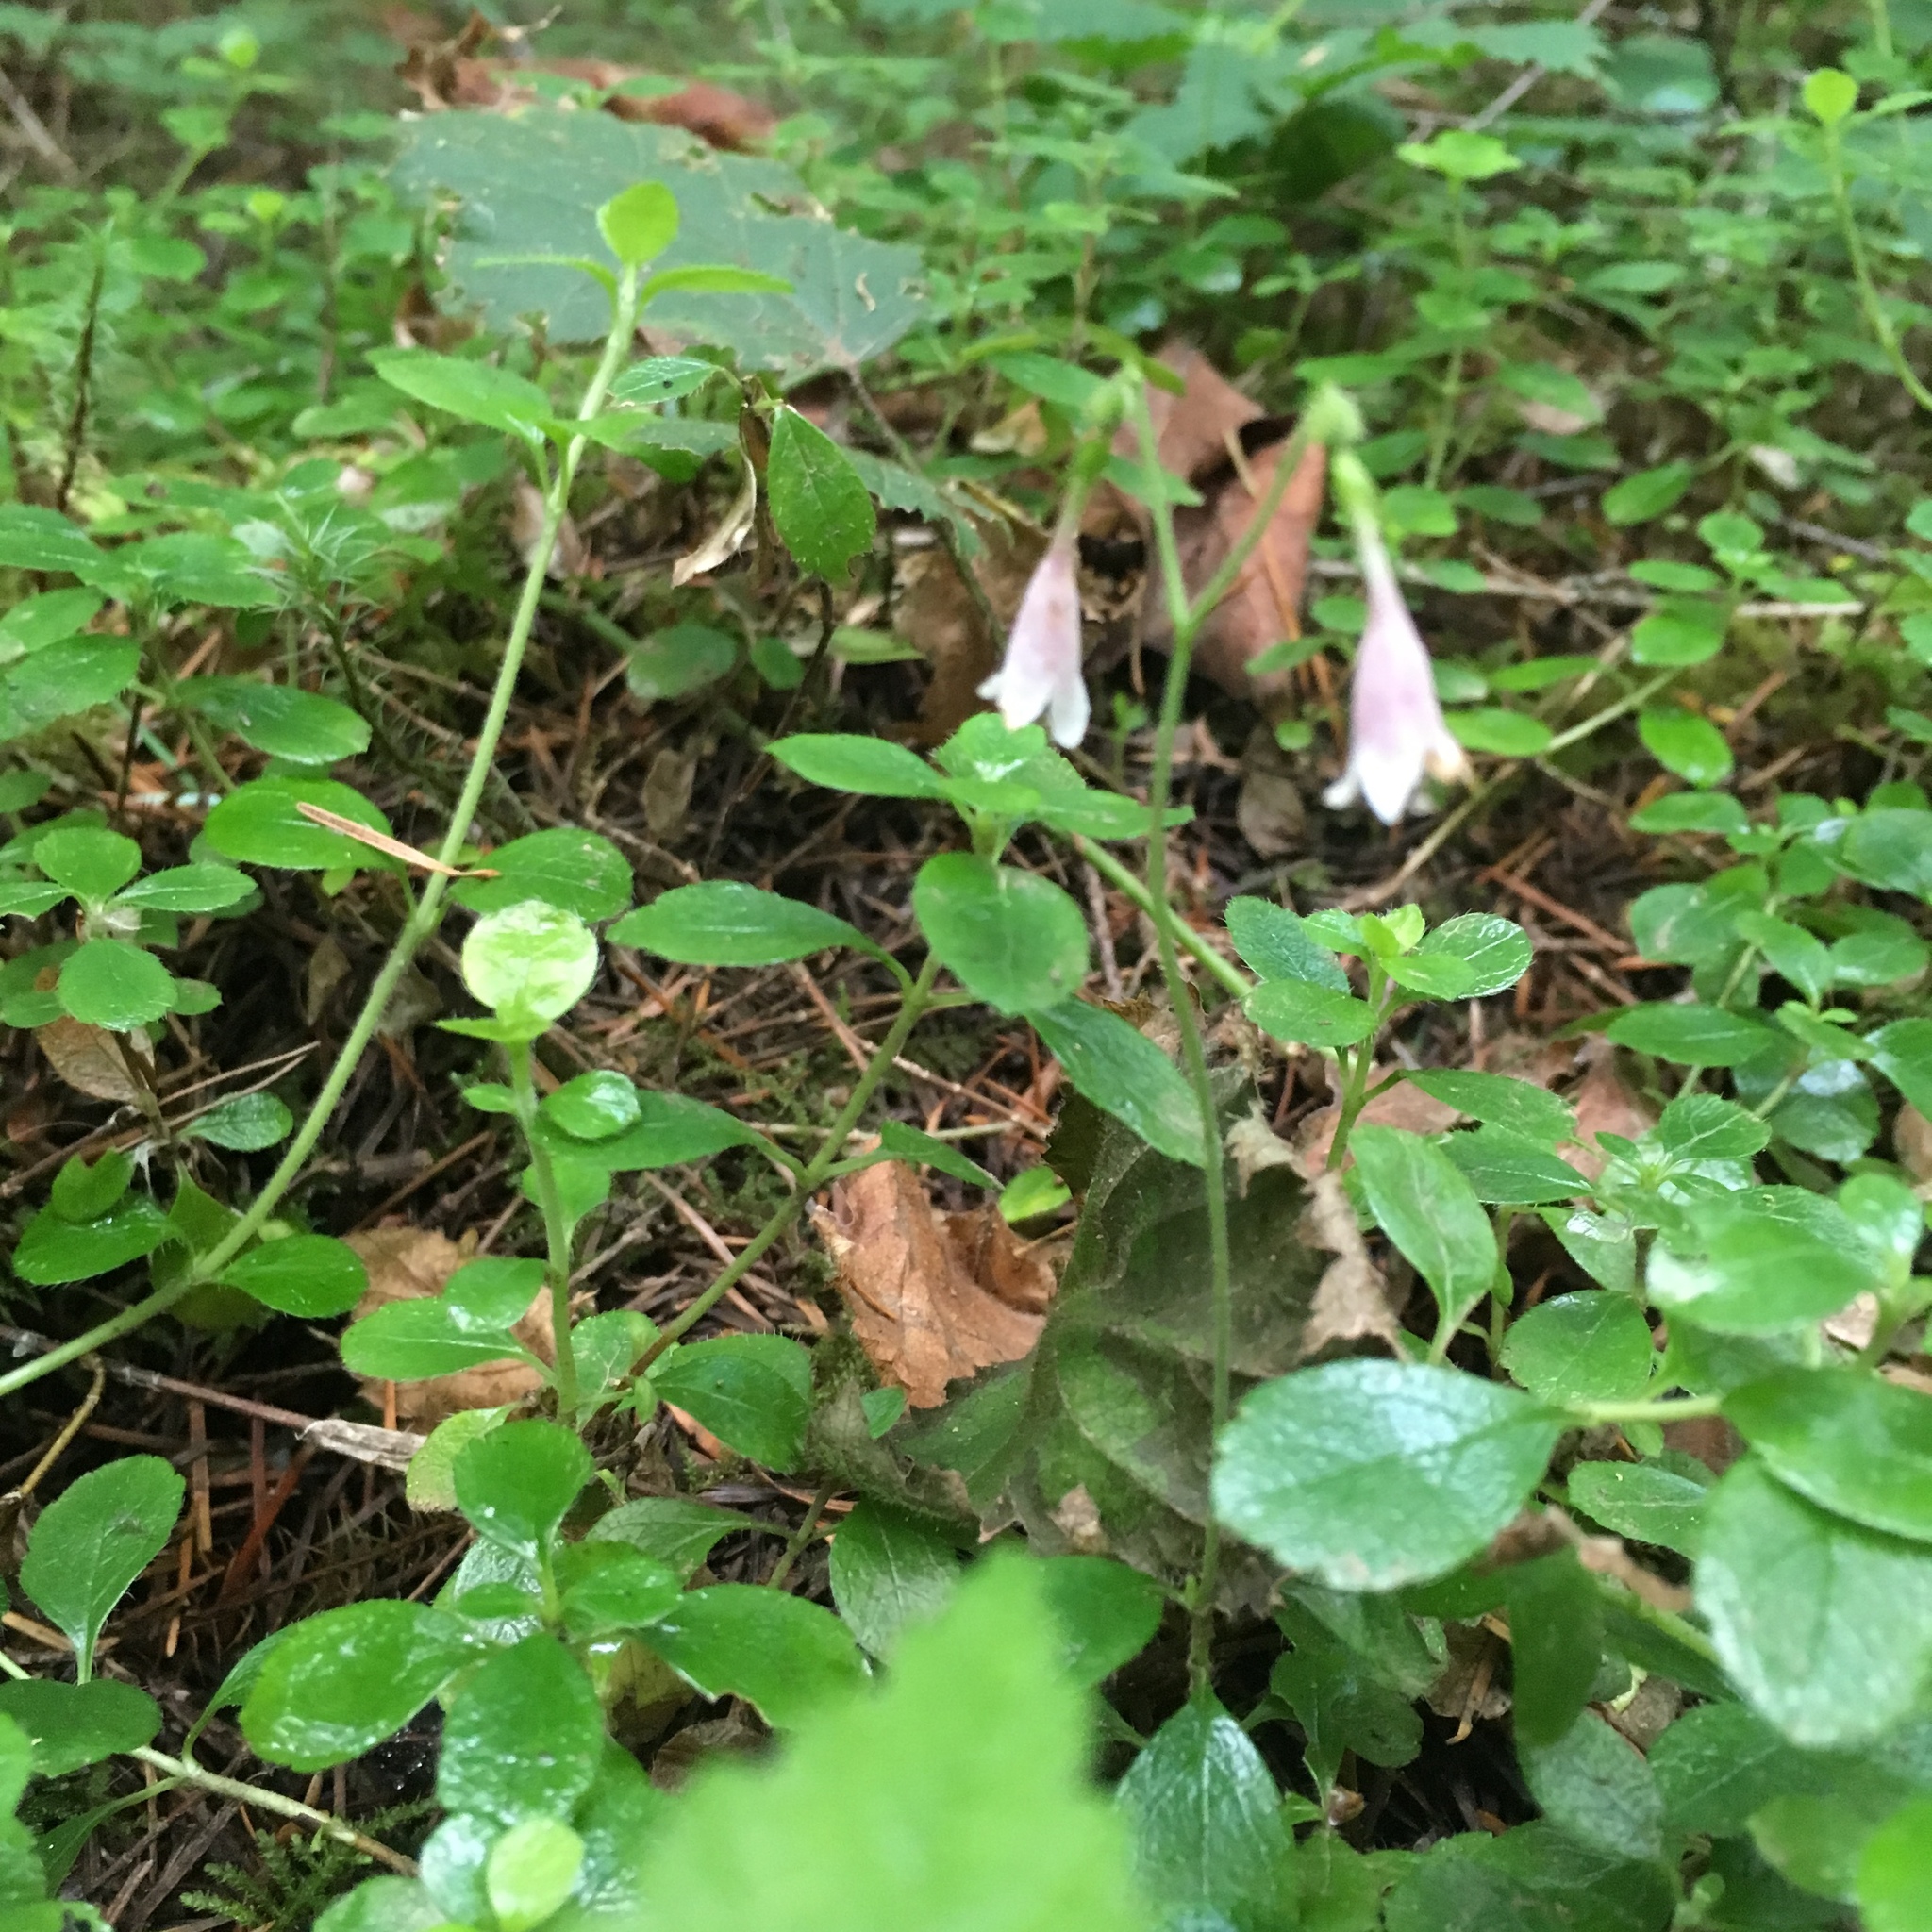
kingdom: Plantae
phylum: Tracheophyta
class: Magnoliopsida
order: Dipsacales
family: Caprifoliaceae
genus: Linnaea
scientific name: Linnaea borealis
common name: Twinflower
